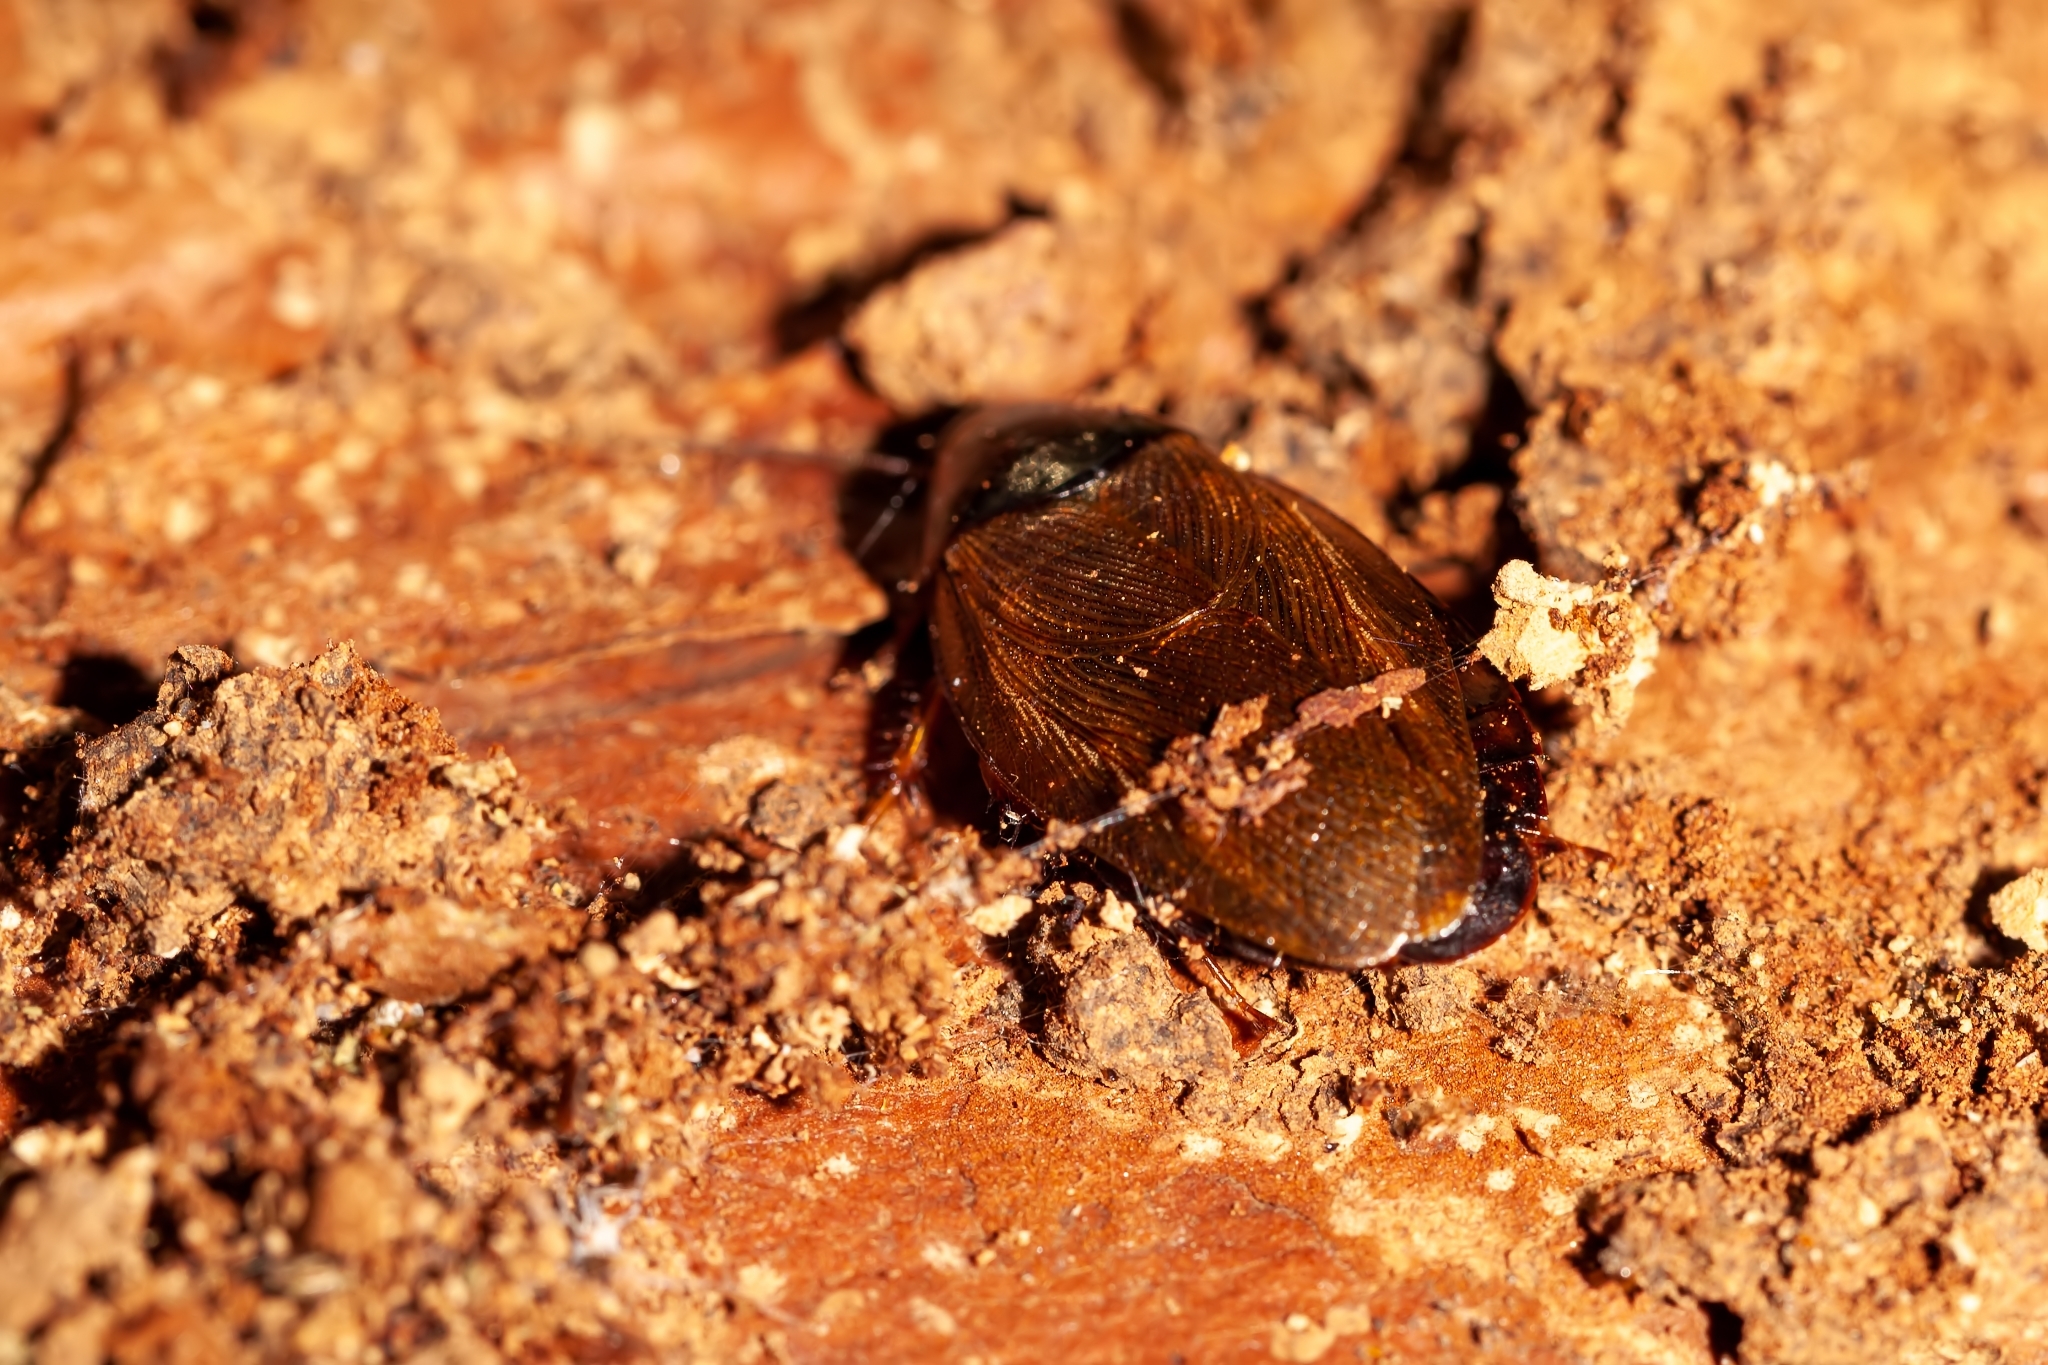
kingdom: Animalia
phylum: Arthropoda
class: Insecta
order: Blattodea
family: Blaberidae
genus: Pycnoscelus
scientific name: Pycnoscelus surinamensis
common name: Surinam cockroach
